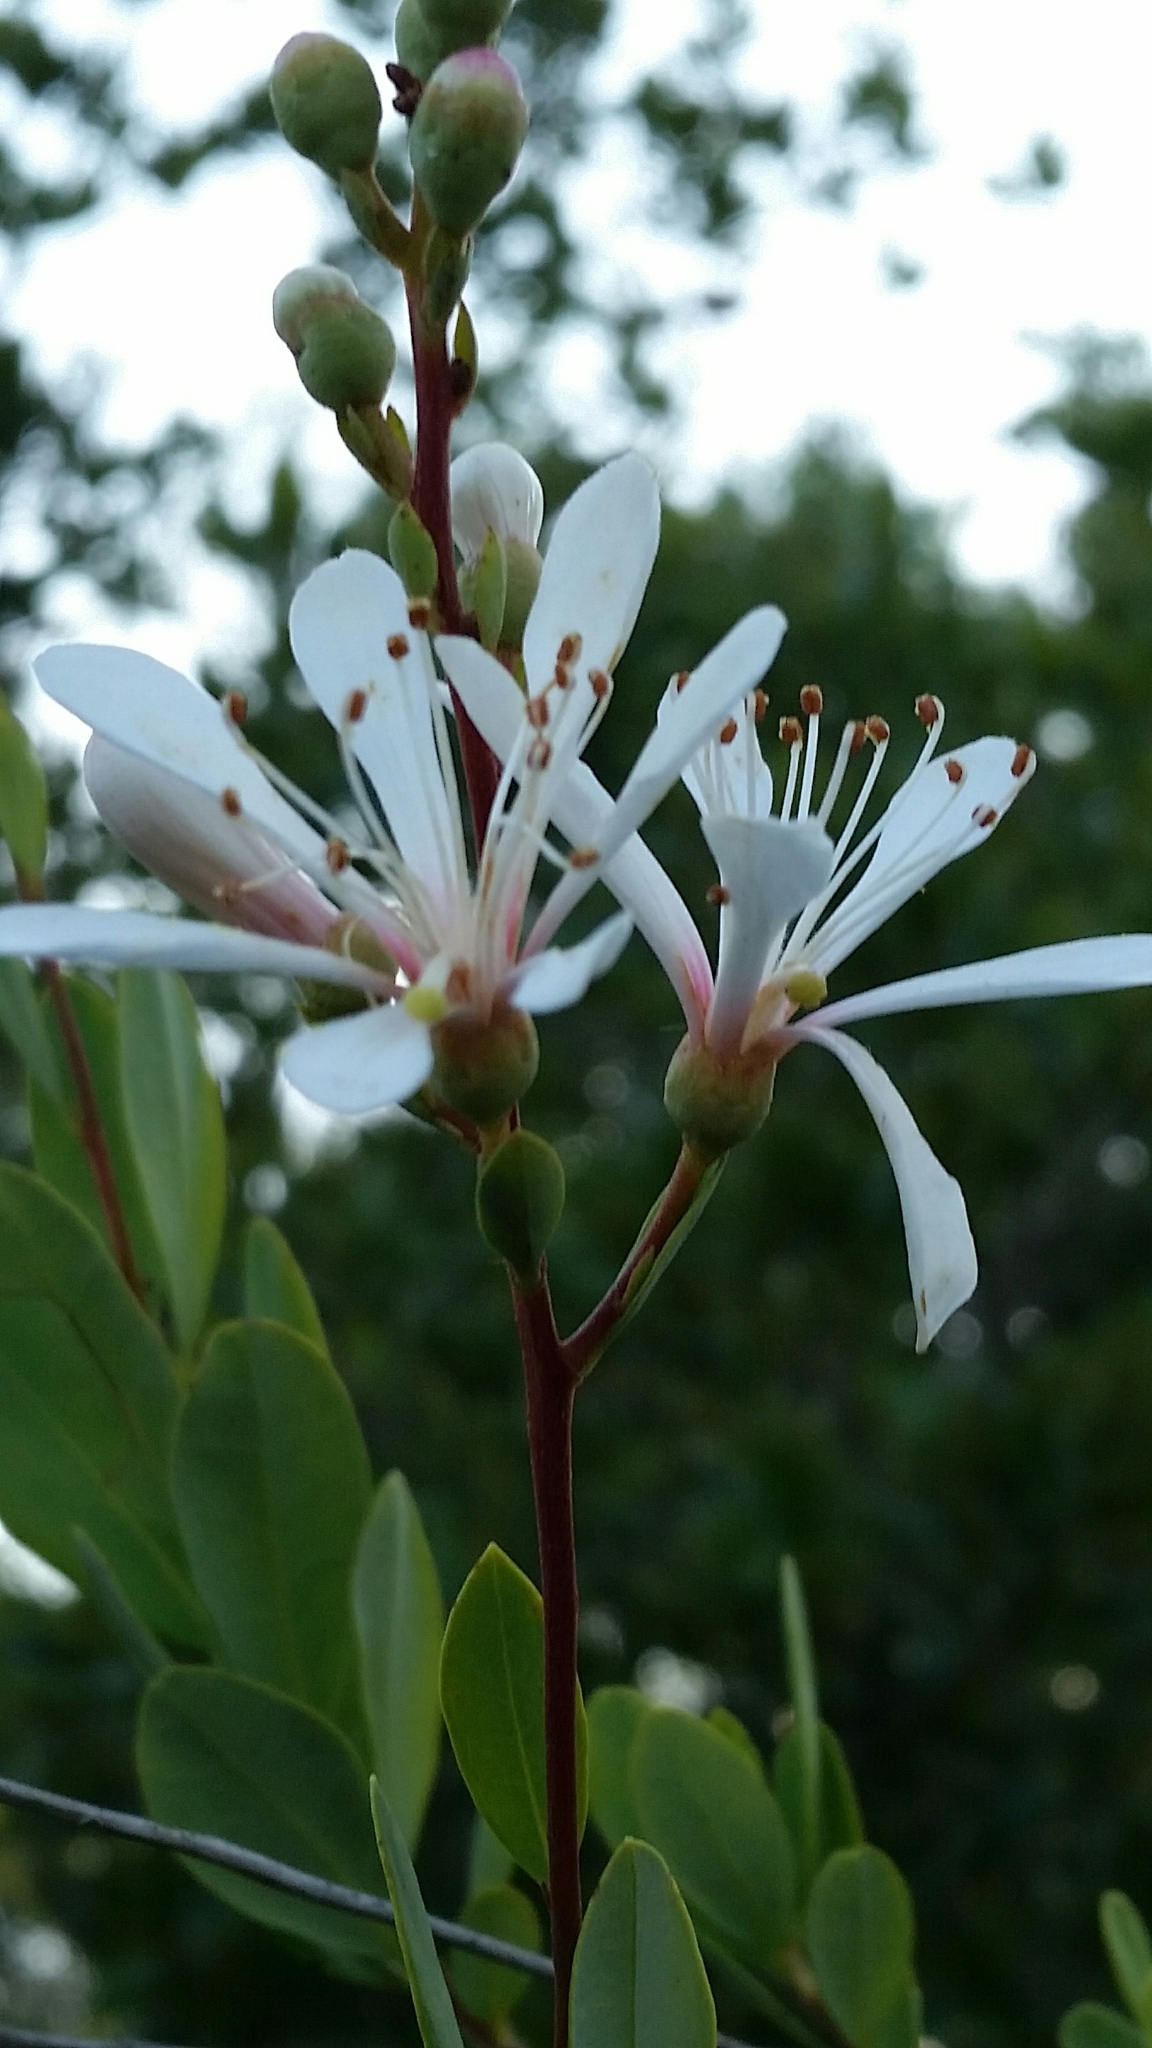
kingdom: Plantae
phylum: Tracheophyta
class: Magnoliopsida
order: Ericales
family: Ericaceae
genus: Bejaria
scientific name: Bejaria racemosa
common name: Tarflower
